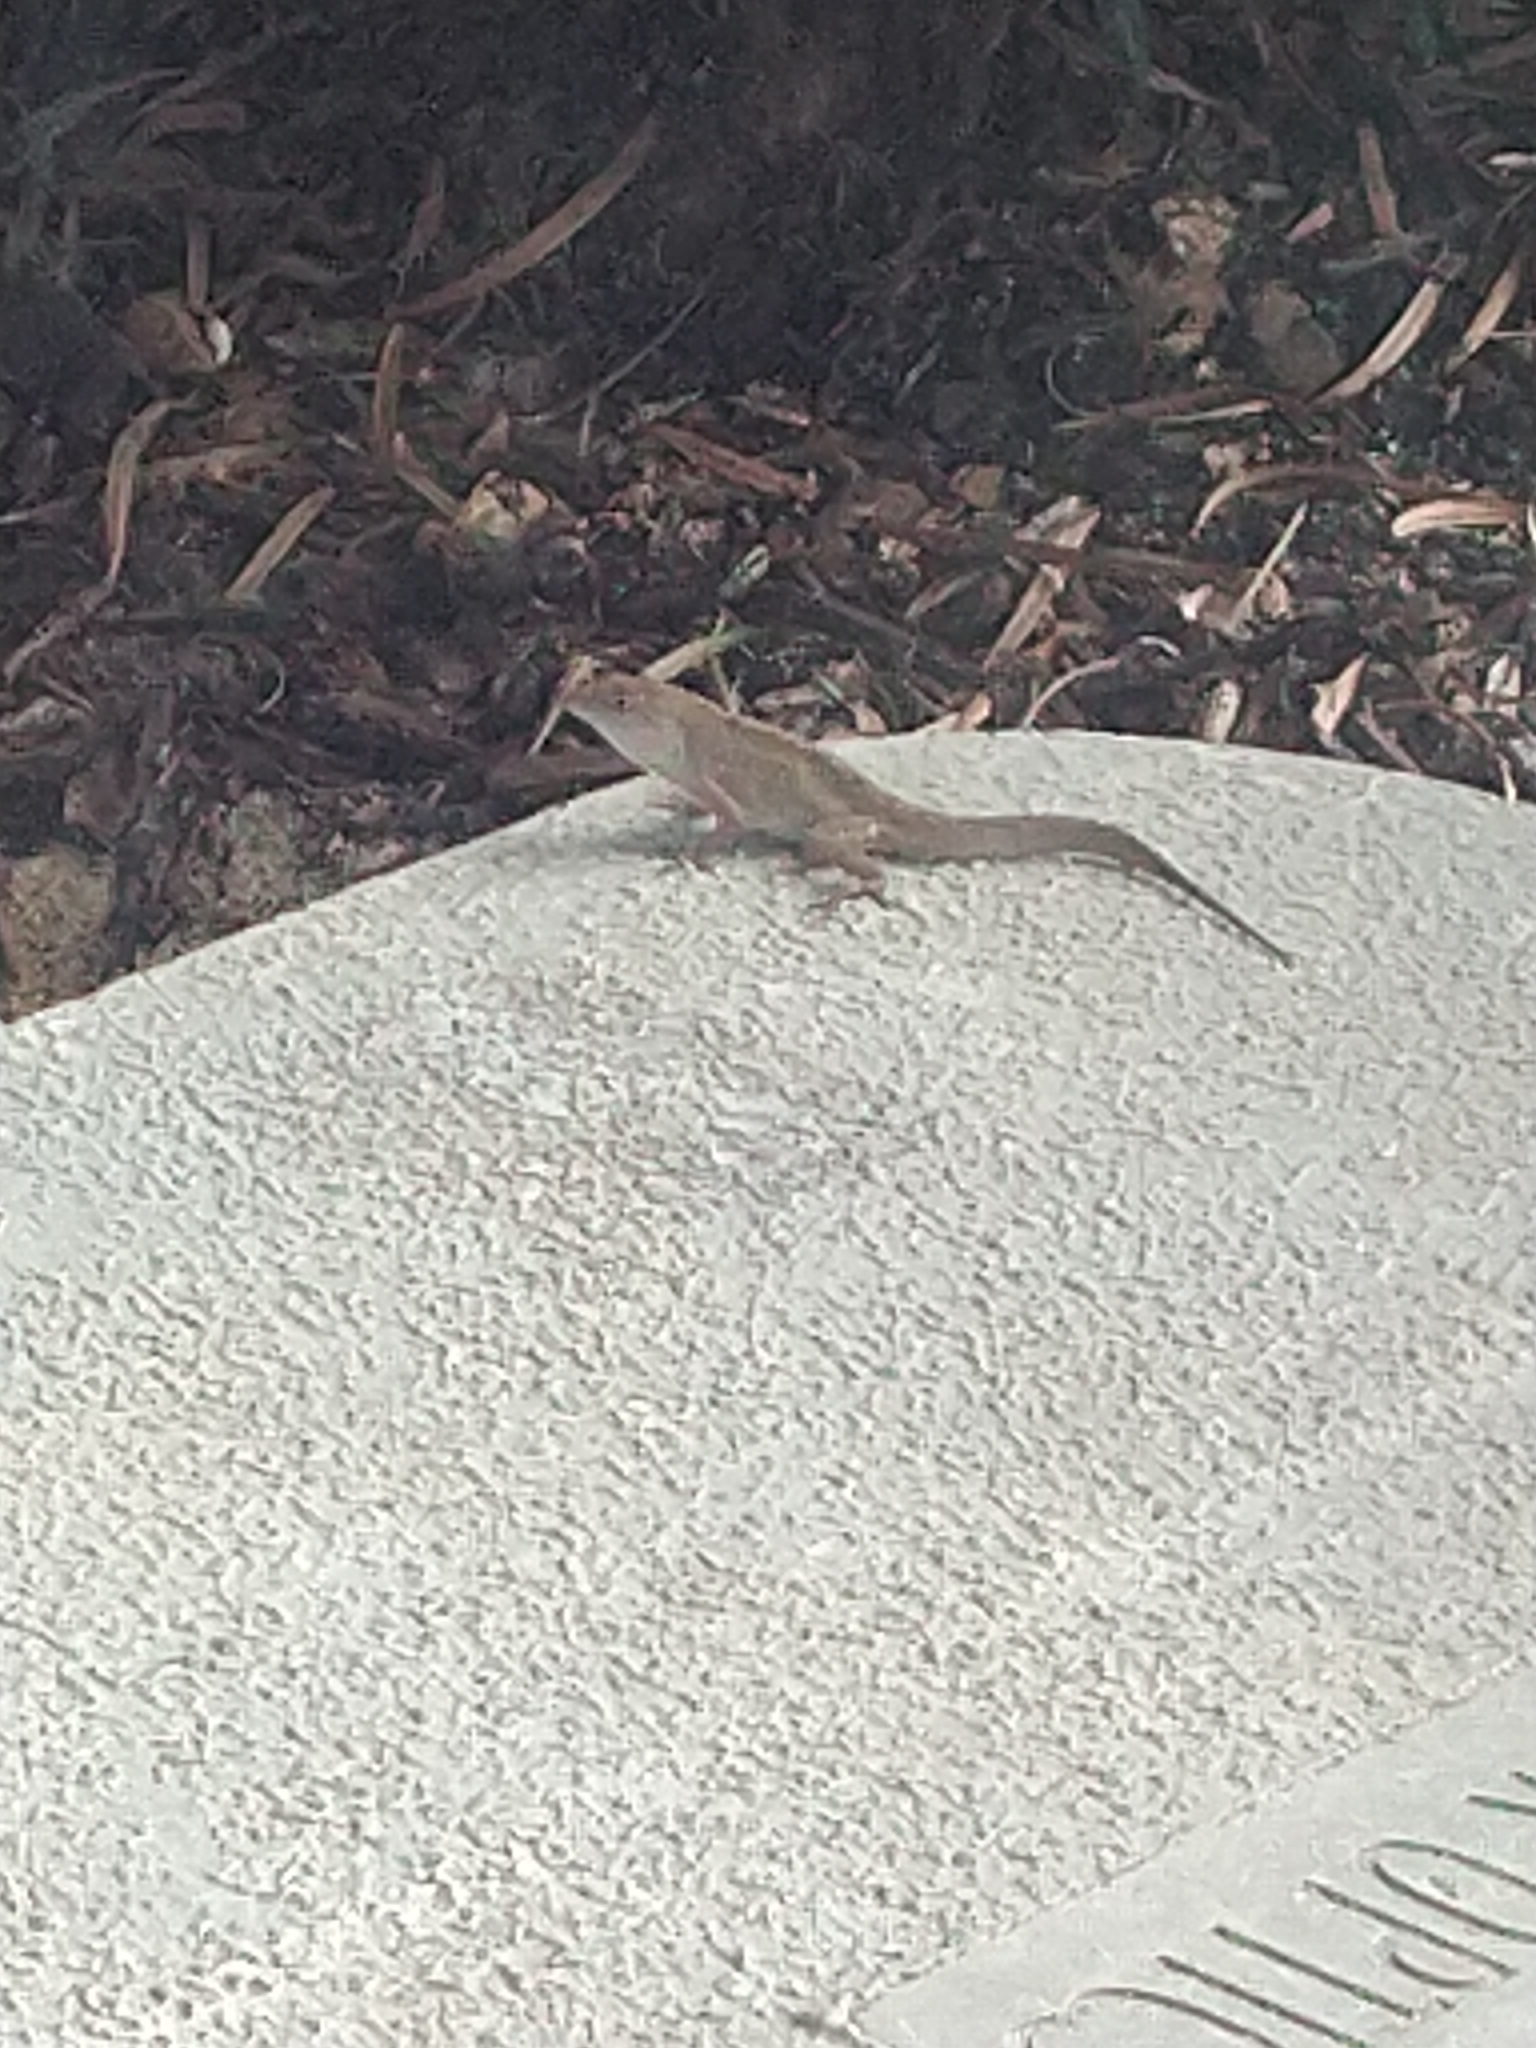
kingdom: Animalia
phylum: Chordata
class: Squamata
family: Dactyloidae
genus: Anolis
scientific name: Anolis sagrei
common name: Brown anole
